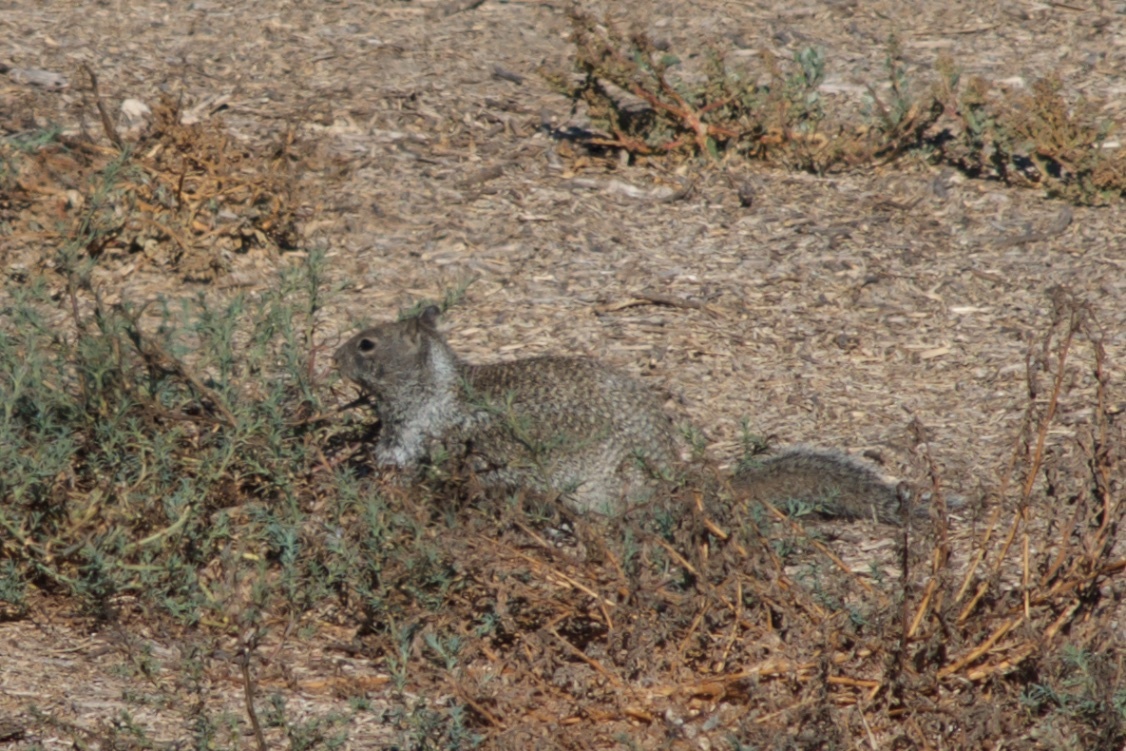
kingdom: Animalia
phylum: Chordata
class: Mammalia
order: Rodentia
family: Sciuridae
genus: Otospermophilus
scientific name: Otospermophilus beecheyi
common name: California ground squirrel
